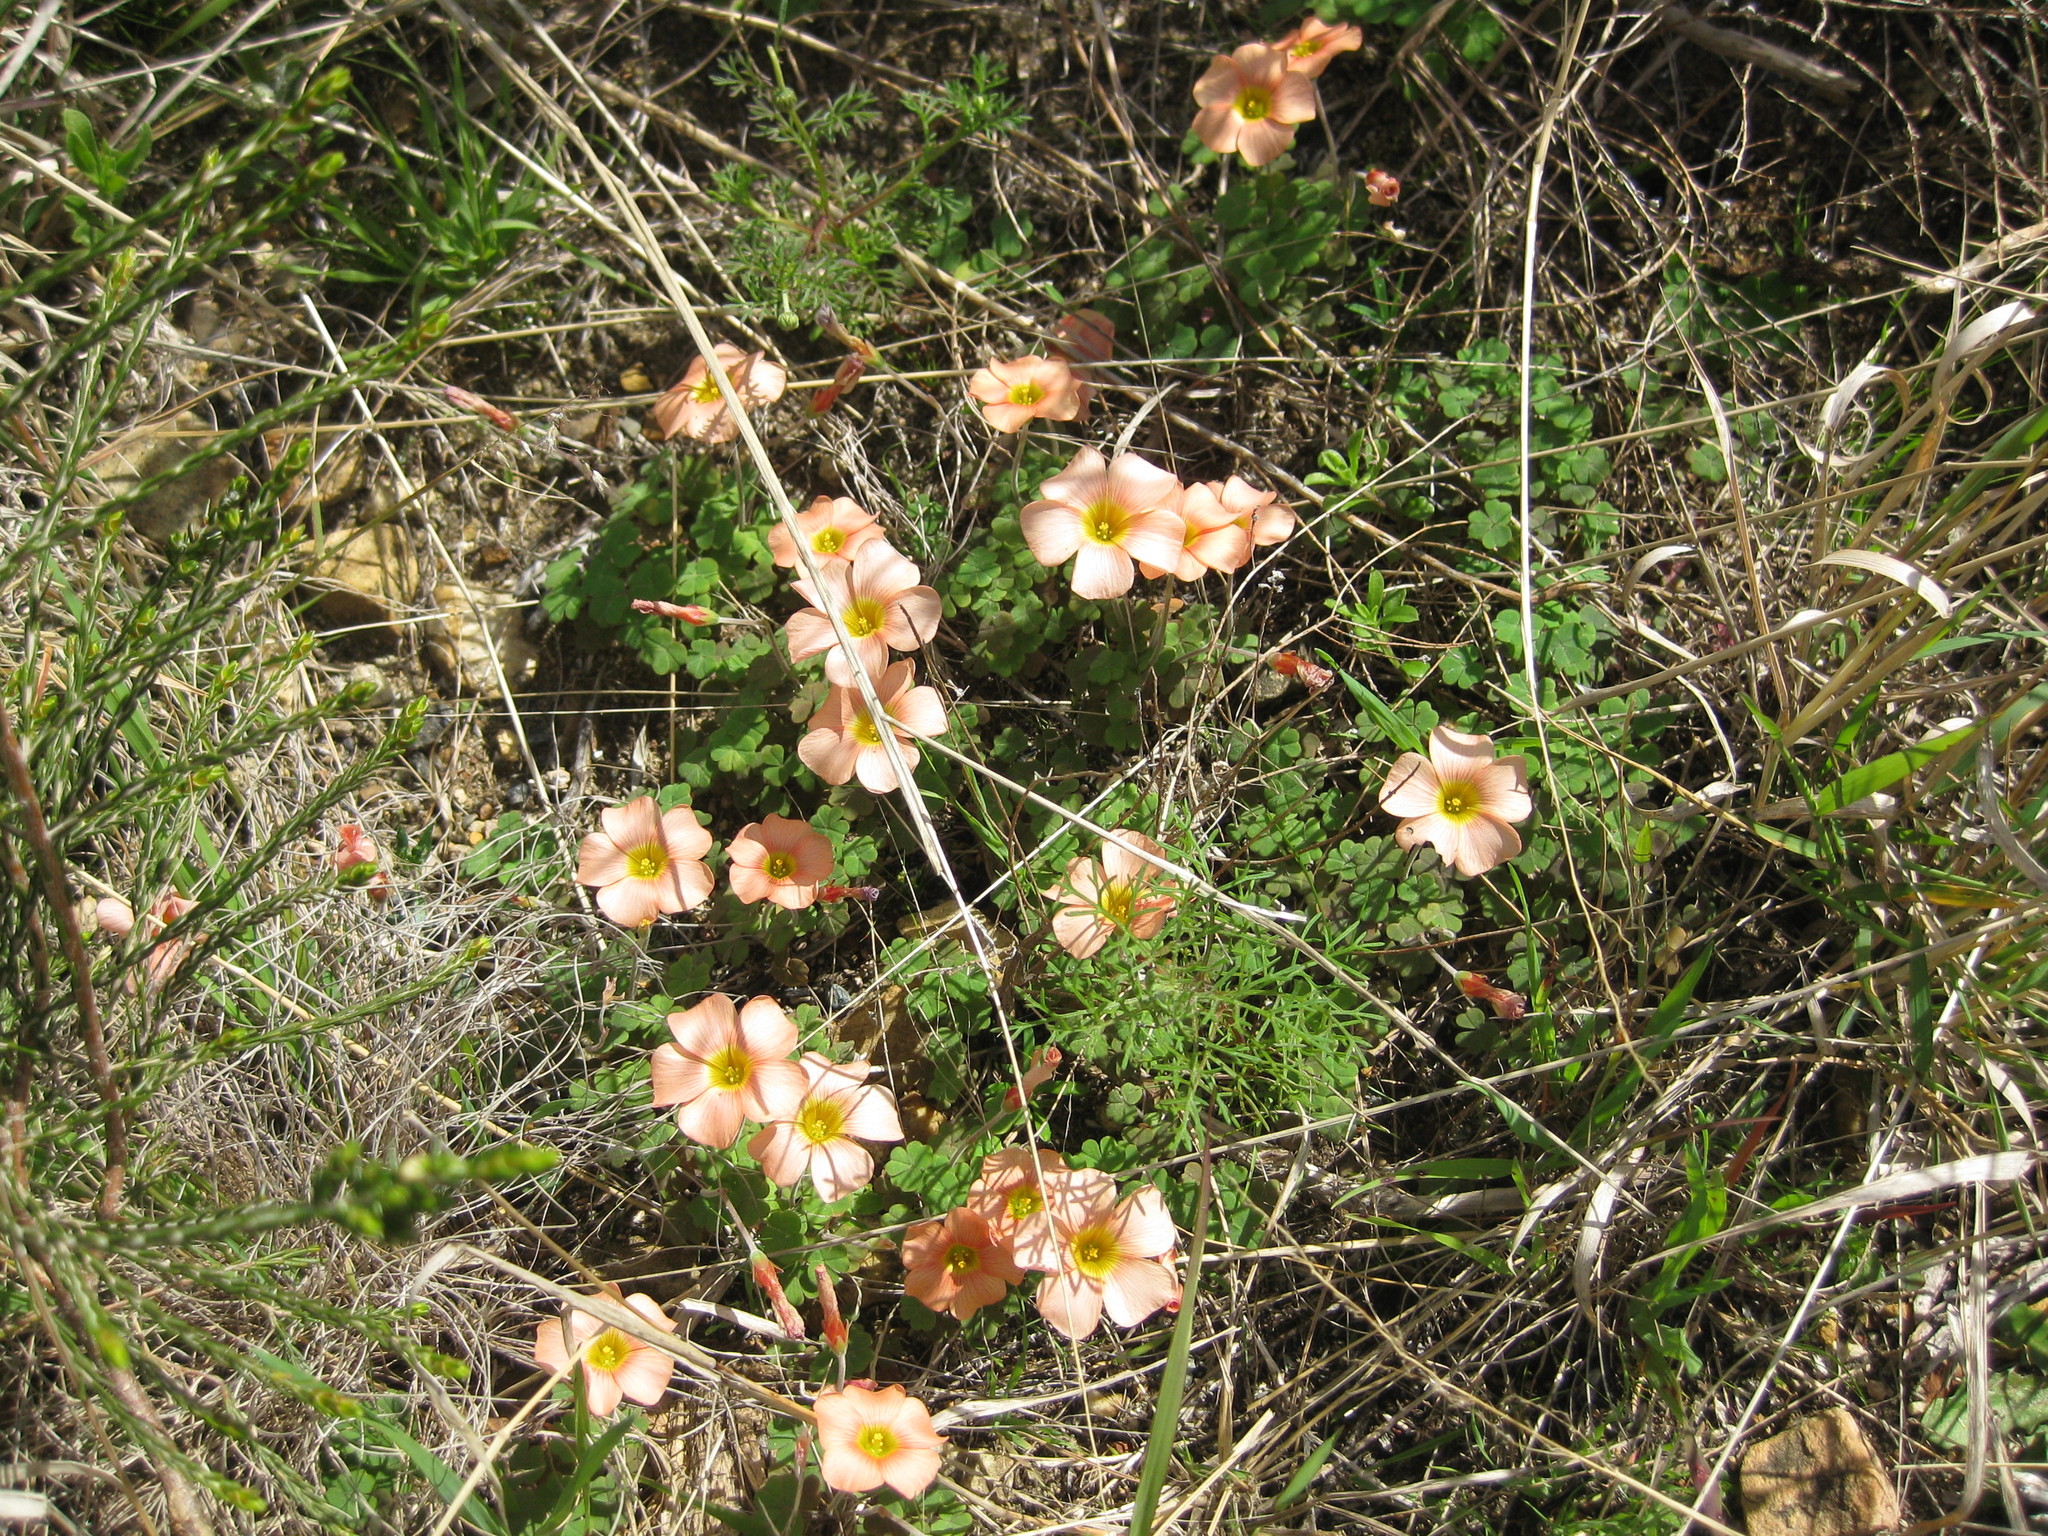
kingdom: Plantae
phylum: Tracheophyta
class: Magnoliopsida
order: Oxalidales
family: Oxalidaceae
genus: Oxalis
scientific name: Oxalis obtusa
